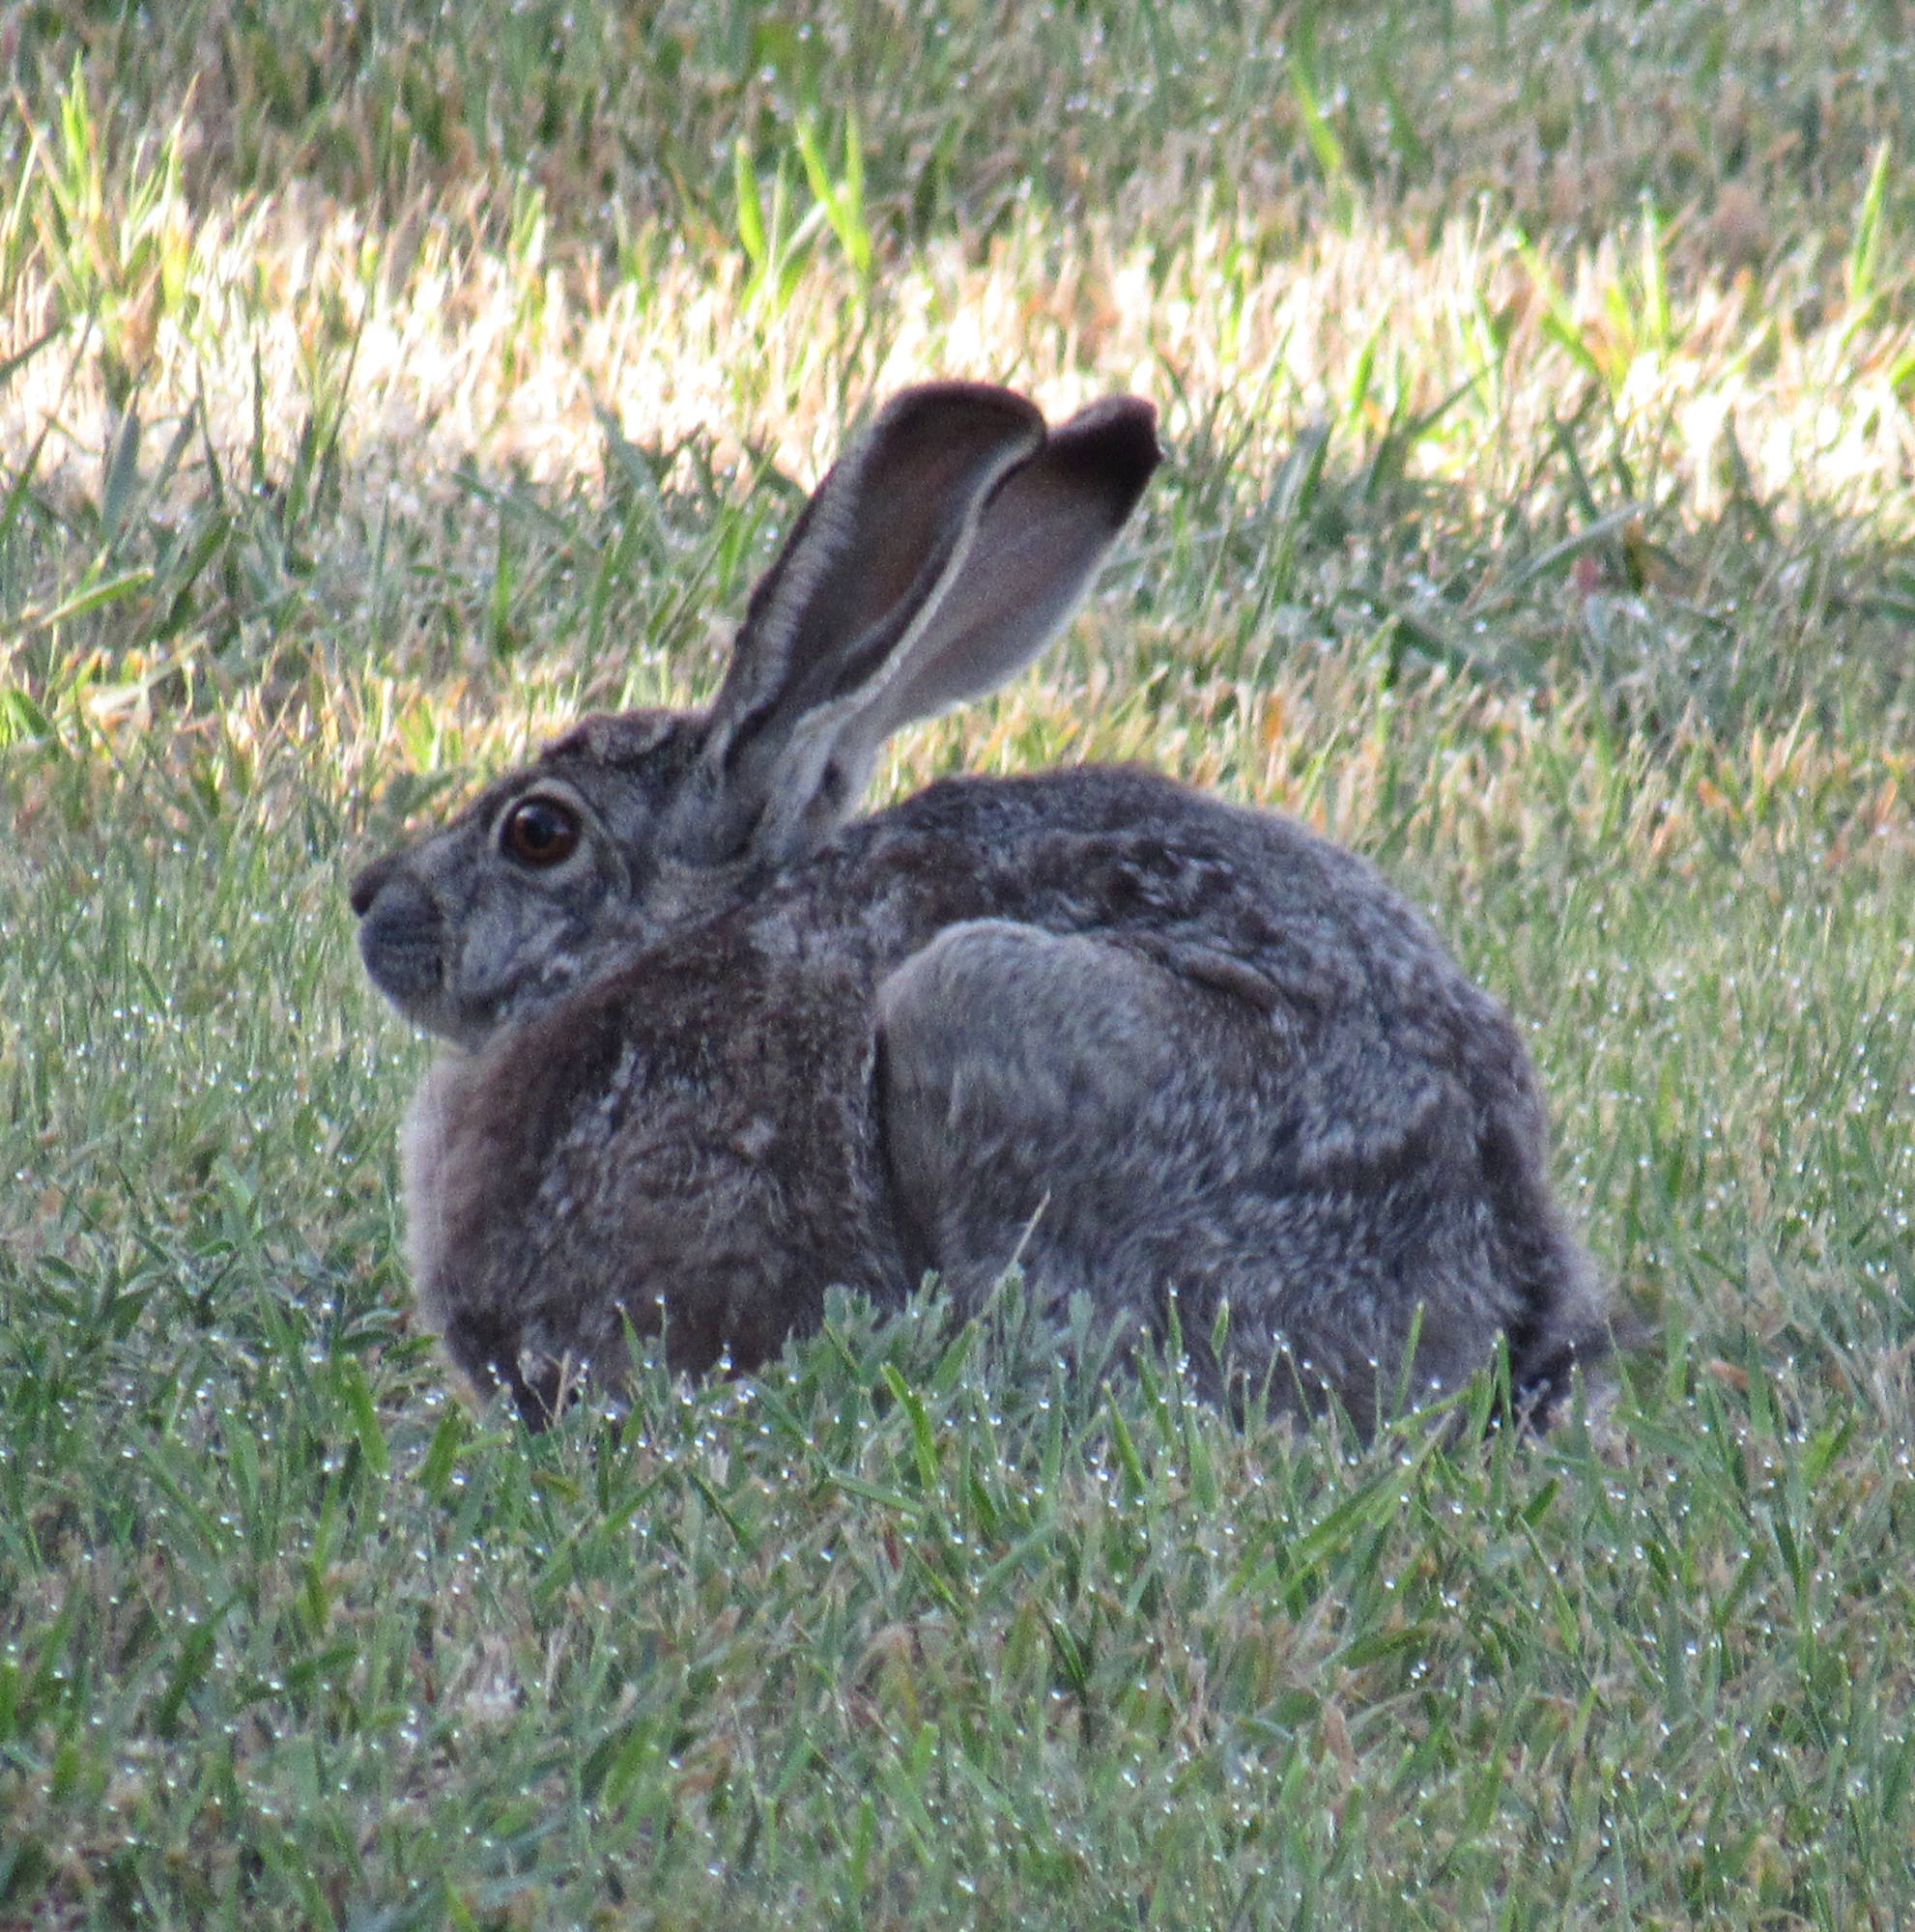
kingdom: Animalia
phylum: Chordata
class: Mammalia
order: Lagomorpha
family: Leporidae
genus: Lepus
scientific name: Lepus californicus
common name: Black-tailed jackrabbit
